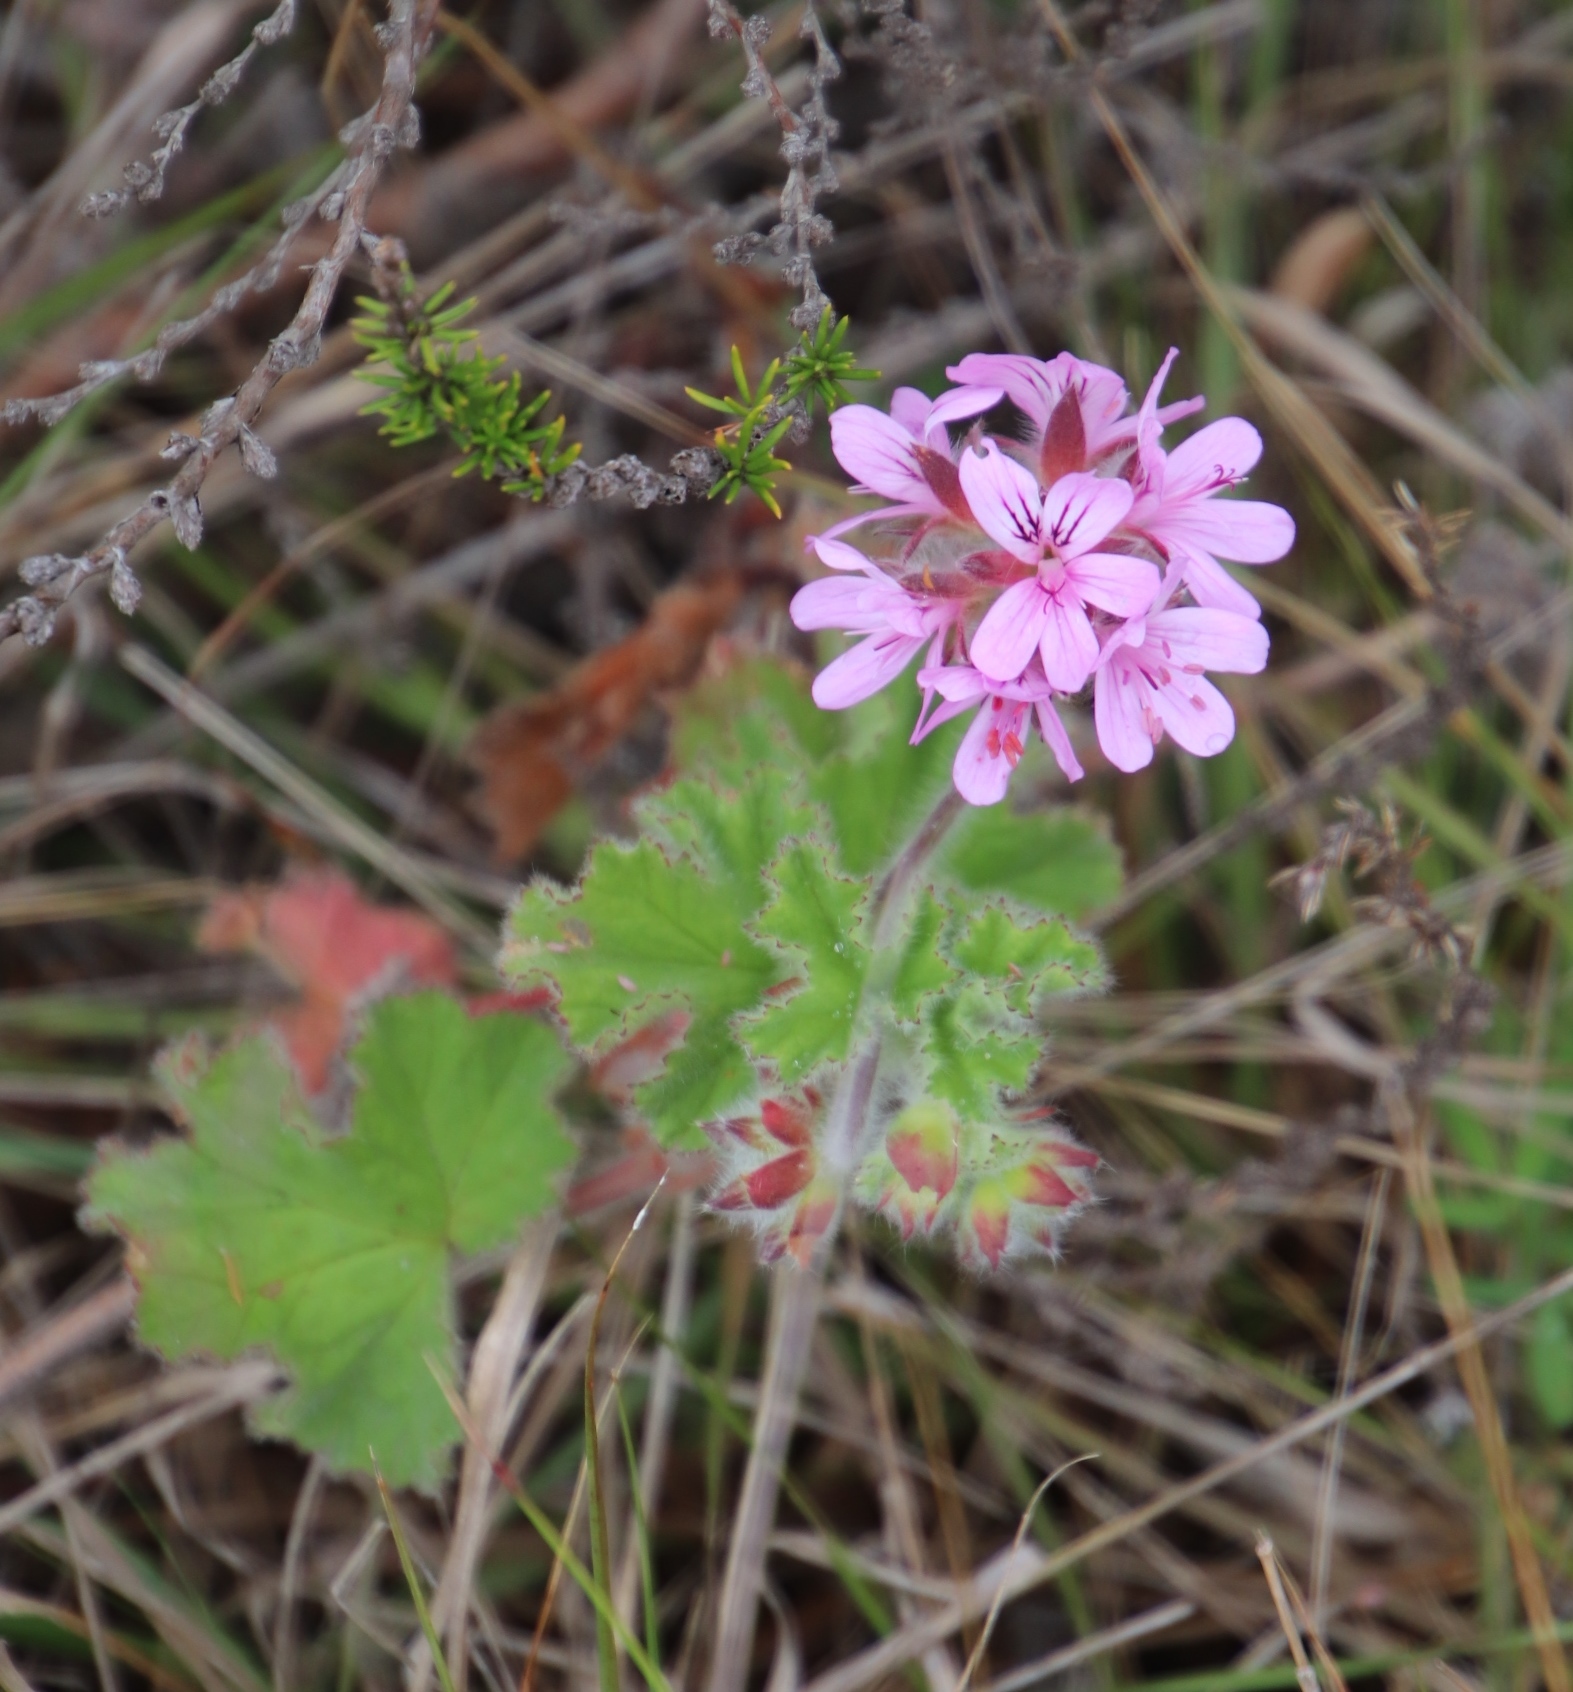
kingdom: Plantae
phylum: Tracheophyta
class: Magnoliopsida
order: Geraniales
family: Geraniaceae
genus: Pelargonium
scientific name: Pelargonium capitatum
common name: Rose scented geranium
